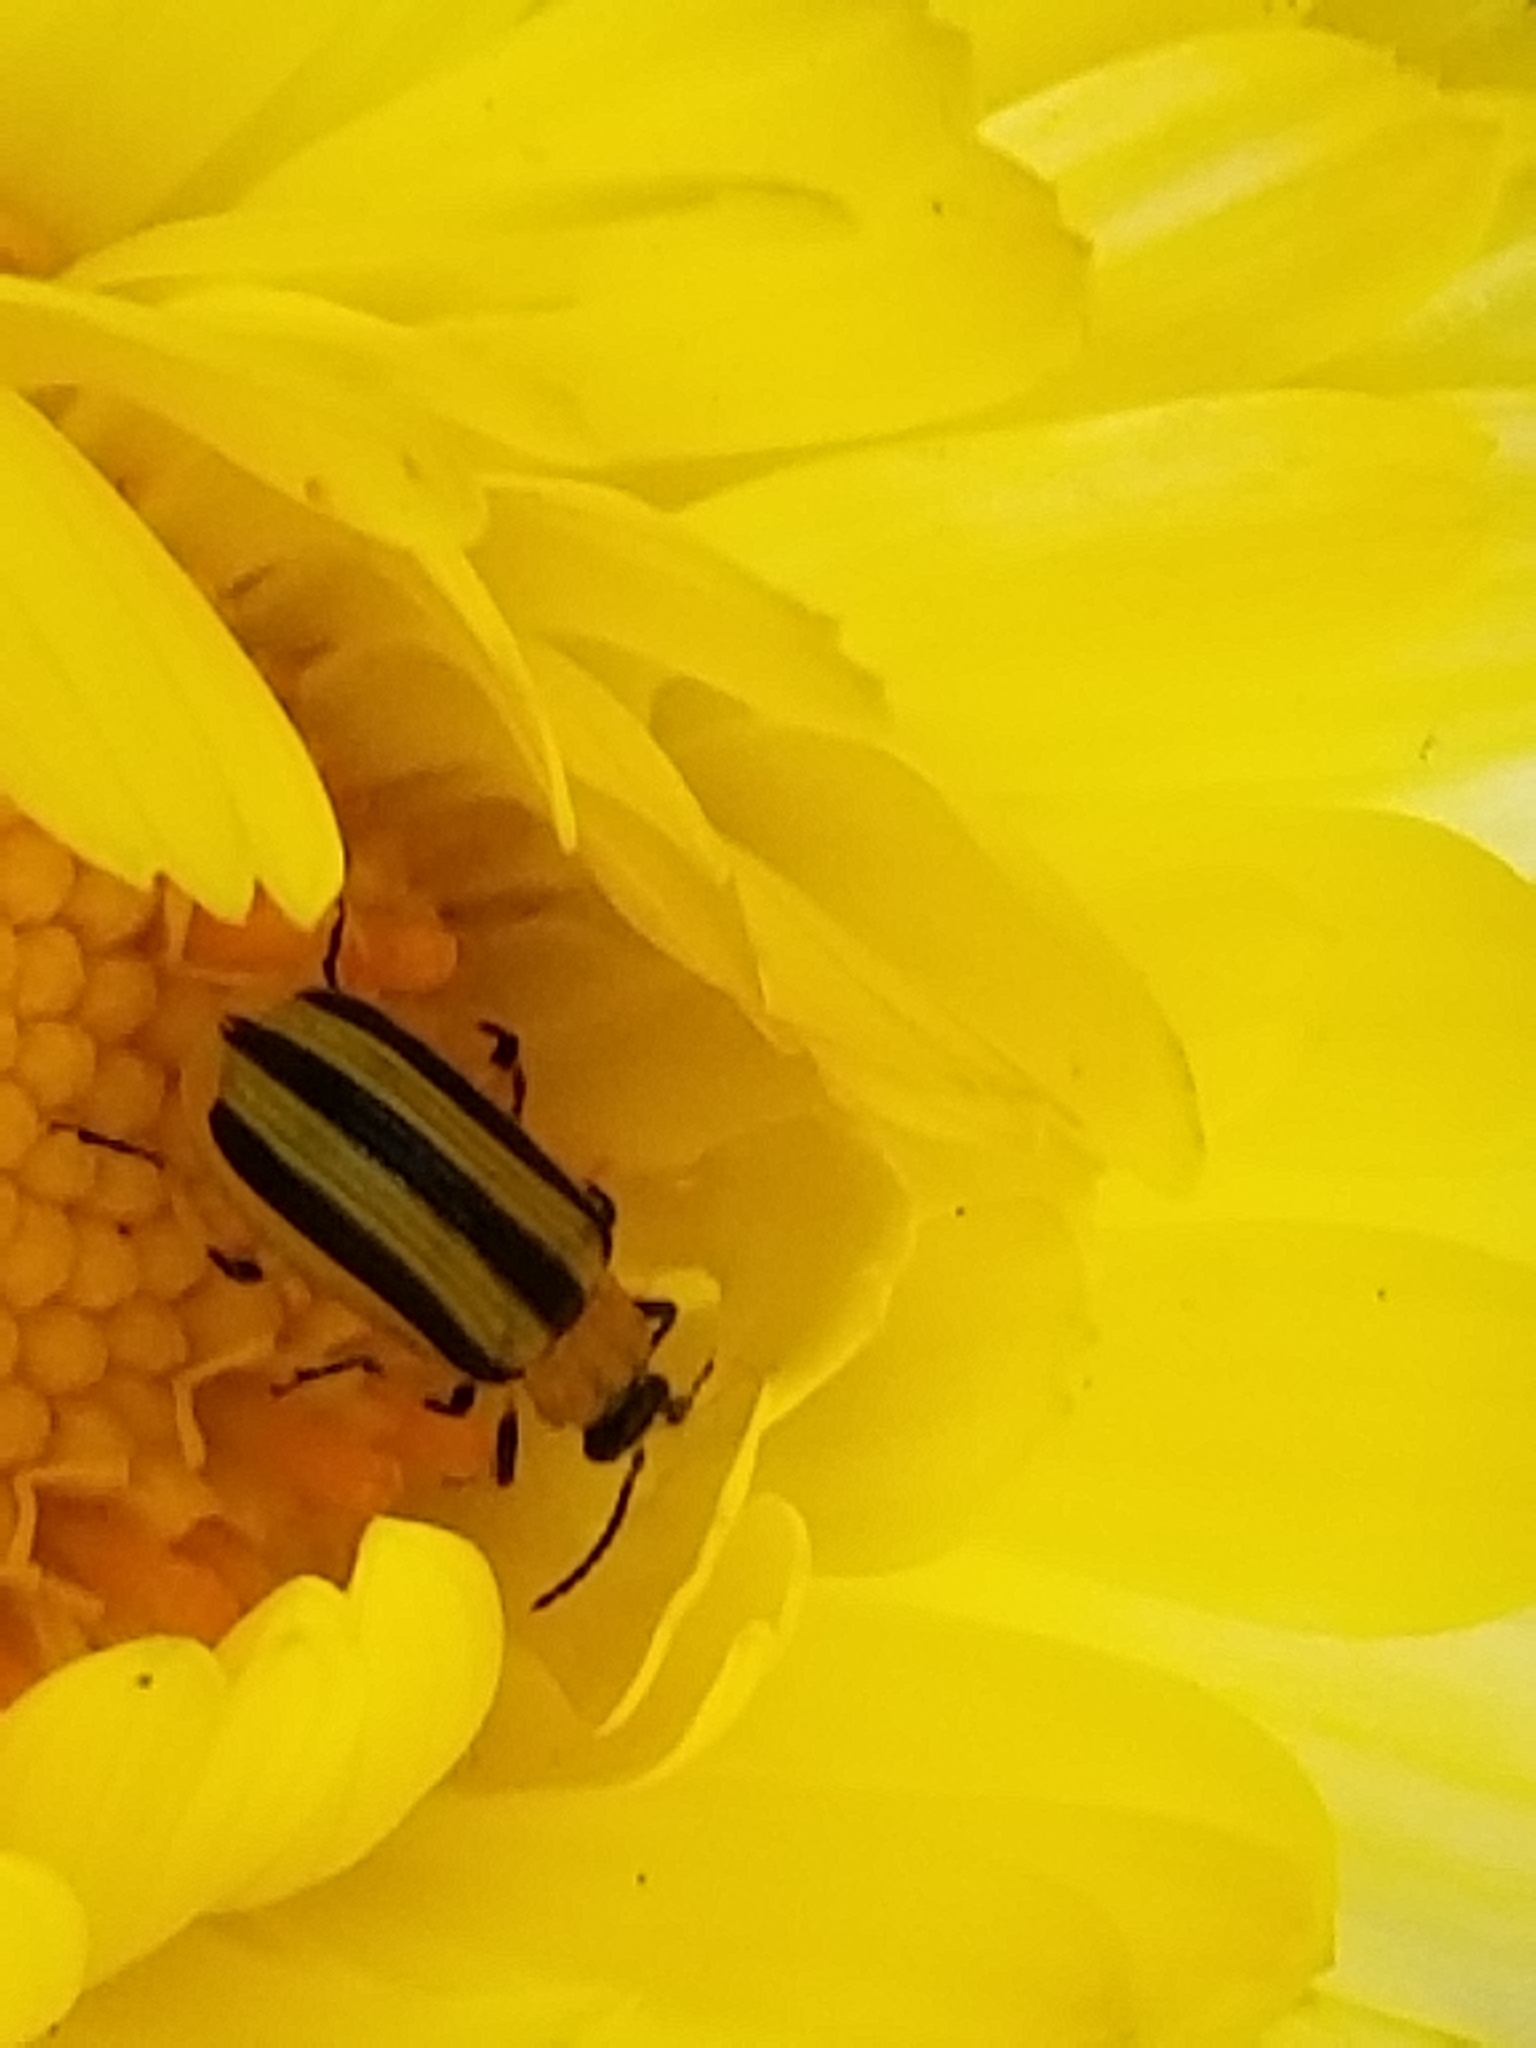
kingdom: Animalia
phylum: Arthropoda
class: Insecta
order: Coleoptera
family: Chrysomelidae
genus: Acalymma
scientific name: Acalymma vittatum
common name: Striped cucumber beetle
